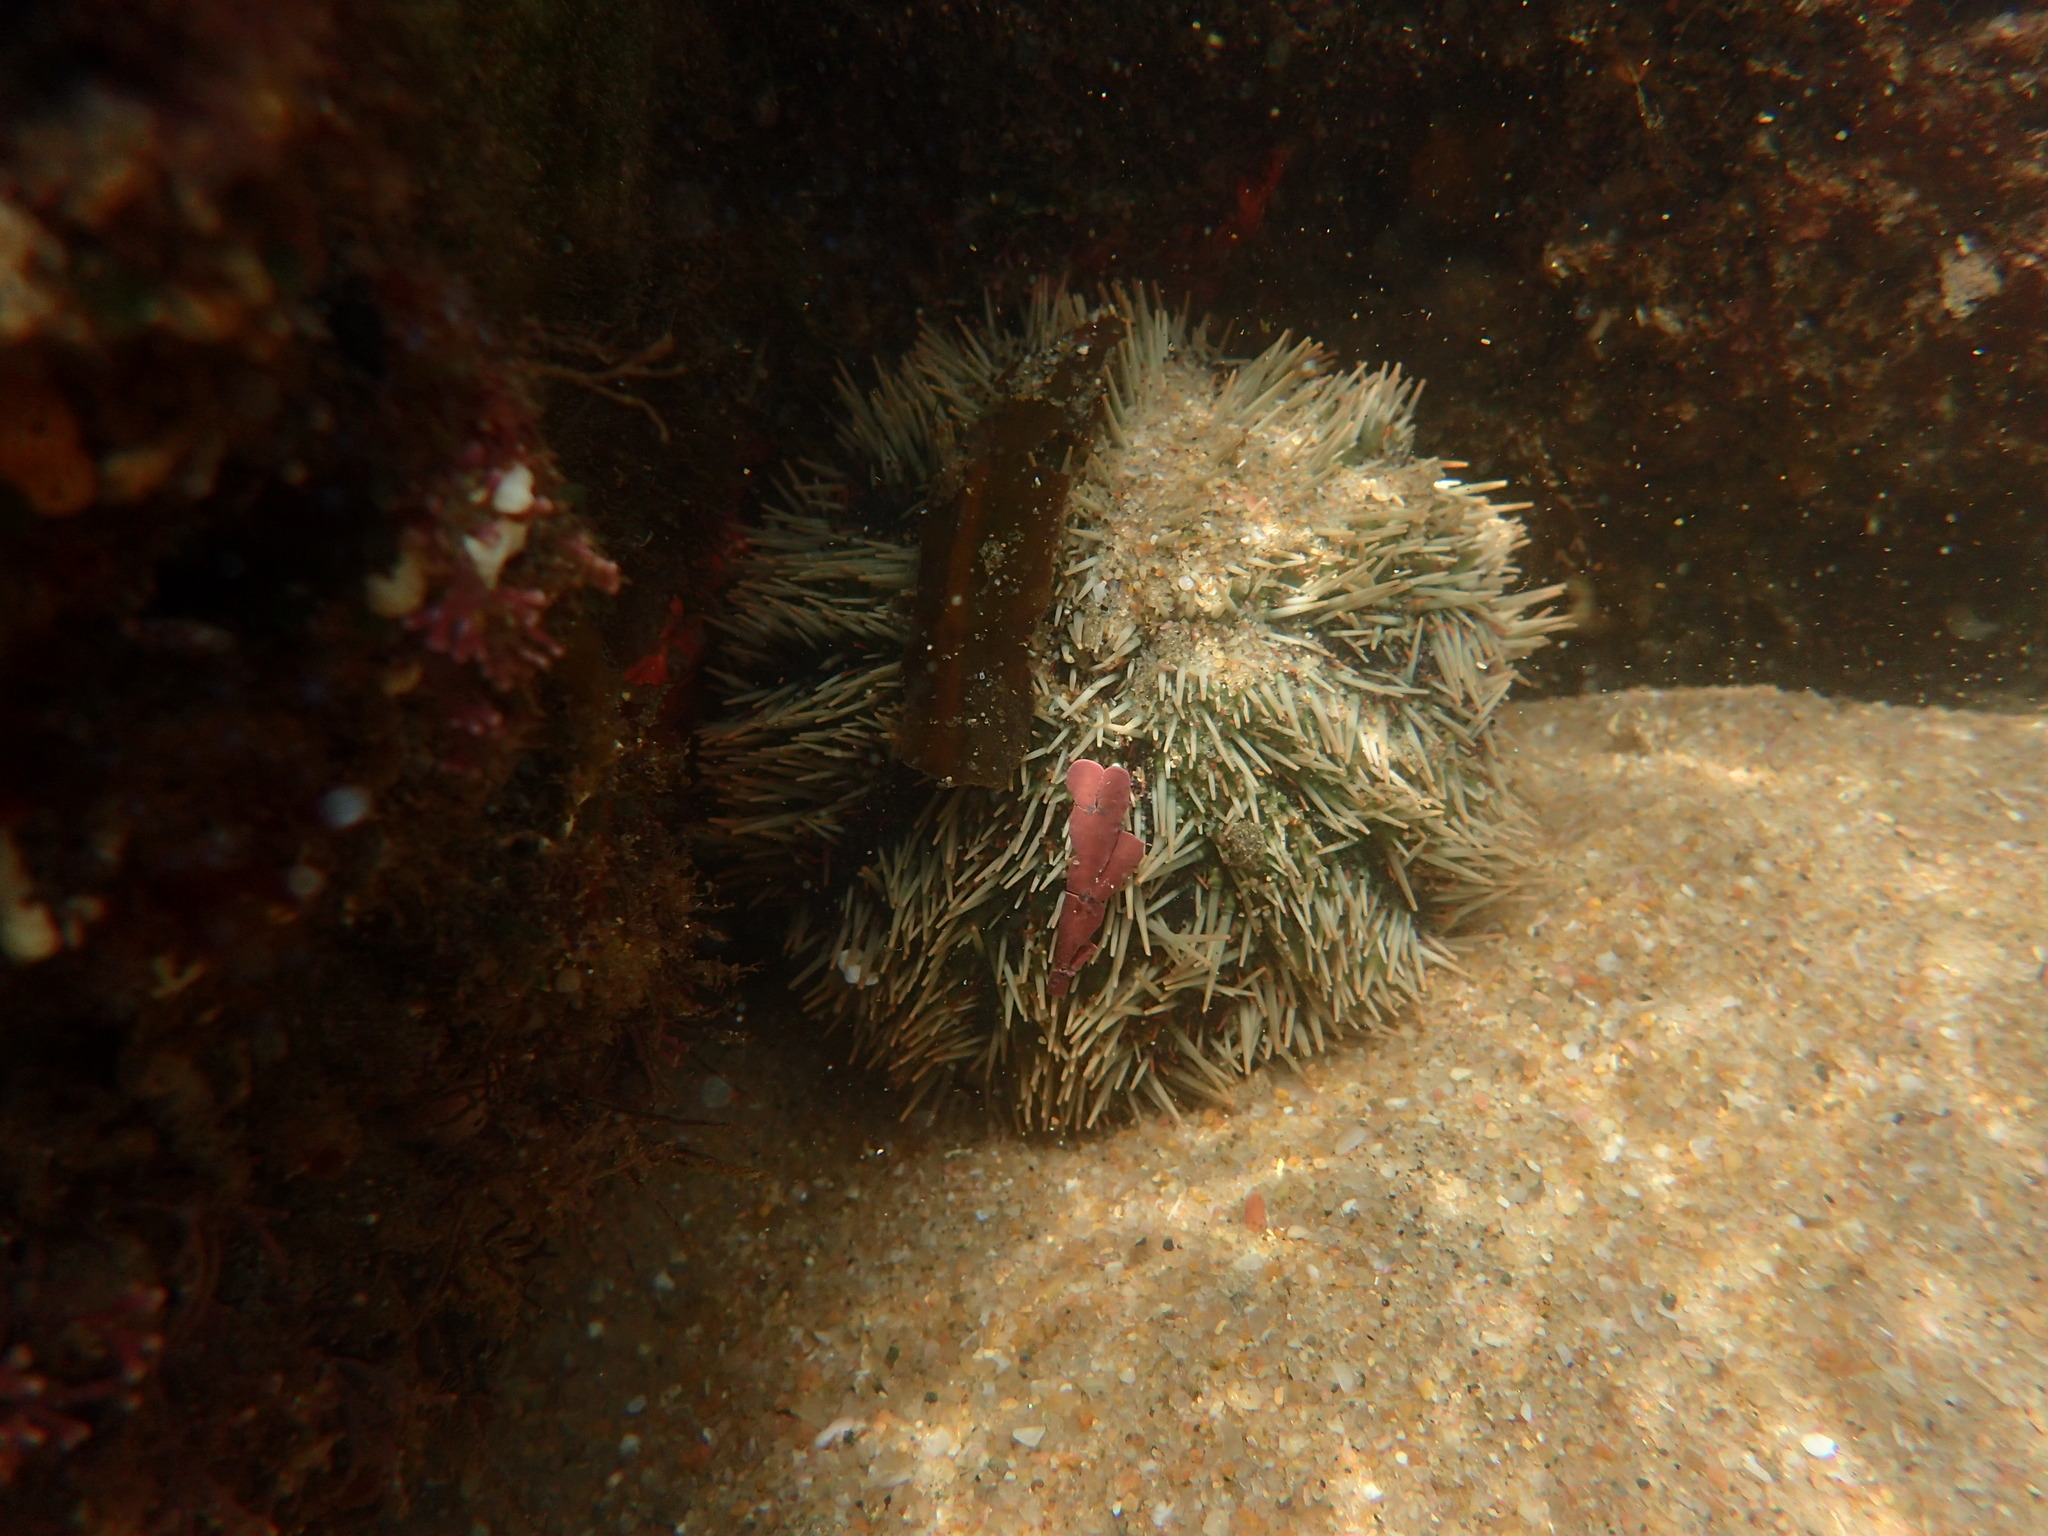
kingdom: Animalia
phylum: Echinodermata
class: Echinoidea
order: Camarodonta
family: Toxopneustidae
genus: Tripneustes
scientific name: Tripneustes gratilla
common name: Bischofsmützenseeigel
